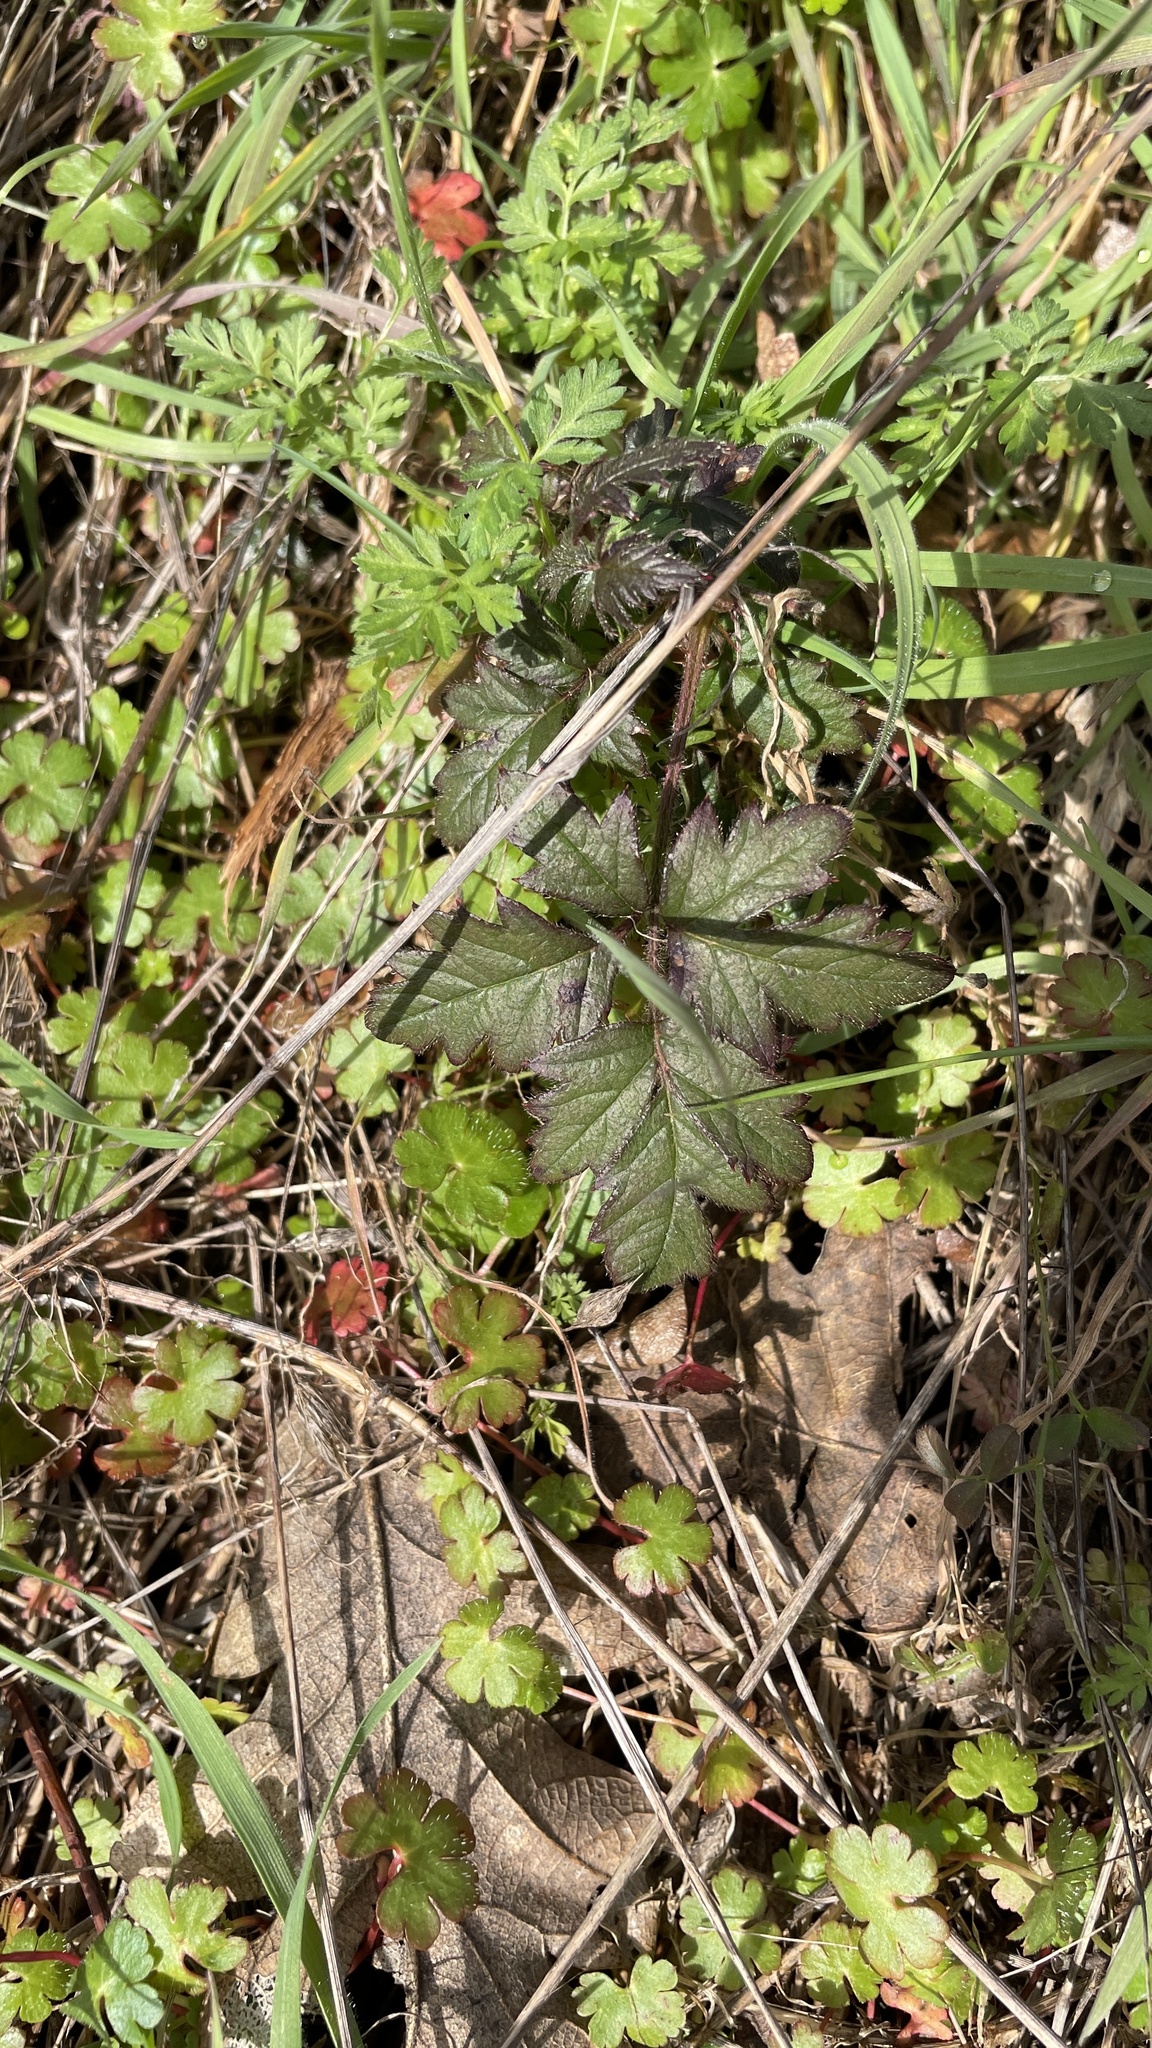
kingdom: Plantae
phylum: Tracheophyta
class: Magnoliopsida
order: Rosales
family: Rosaceae
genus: Rubus
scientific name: Rubus laciniatus
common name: Evergreen blackberry
